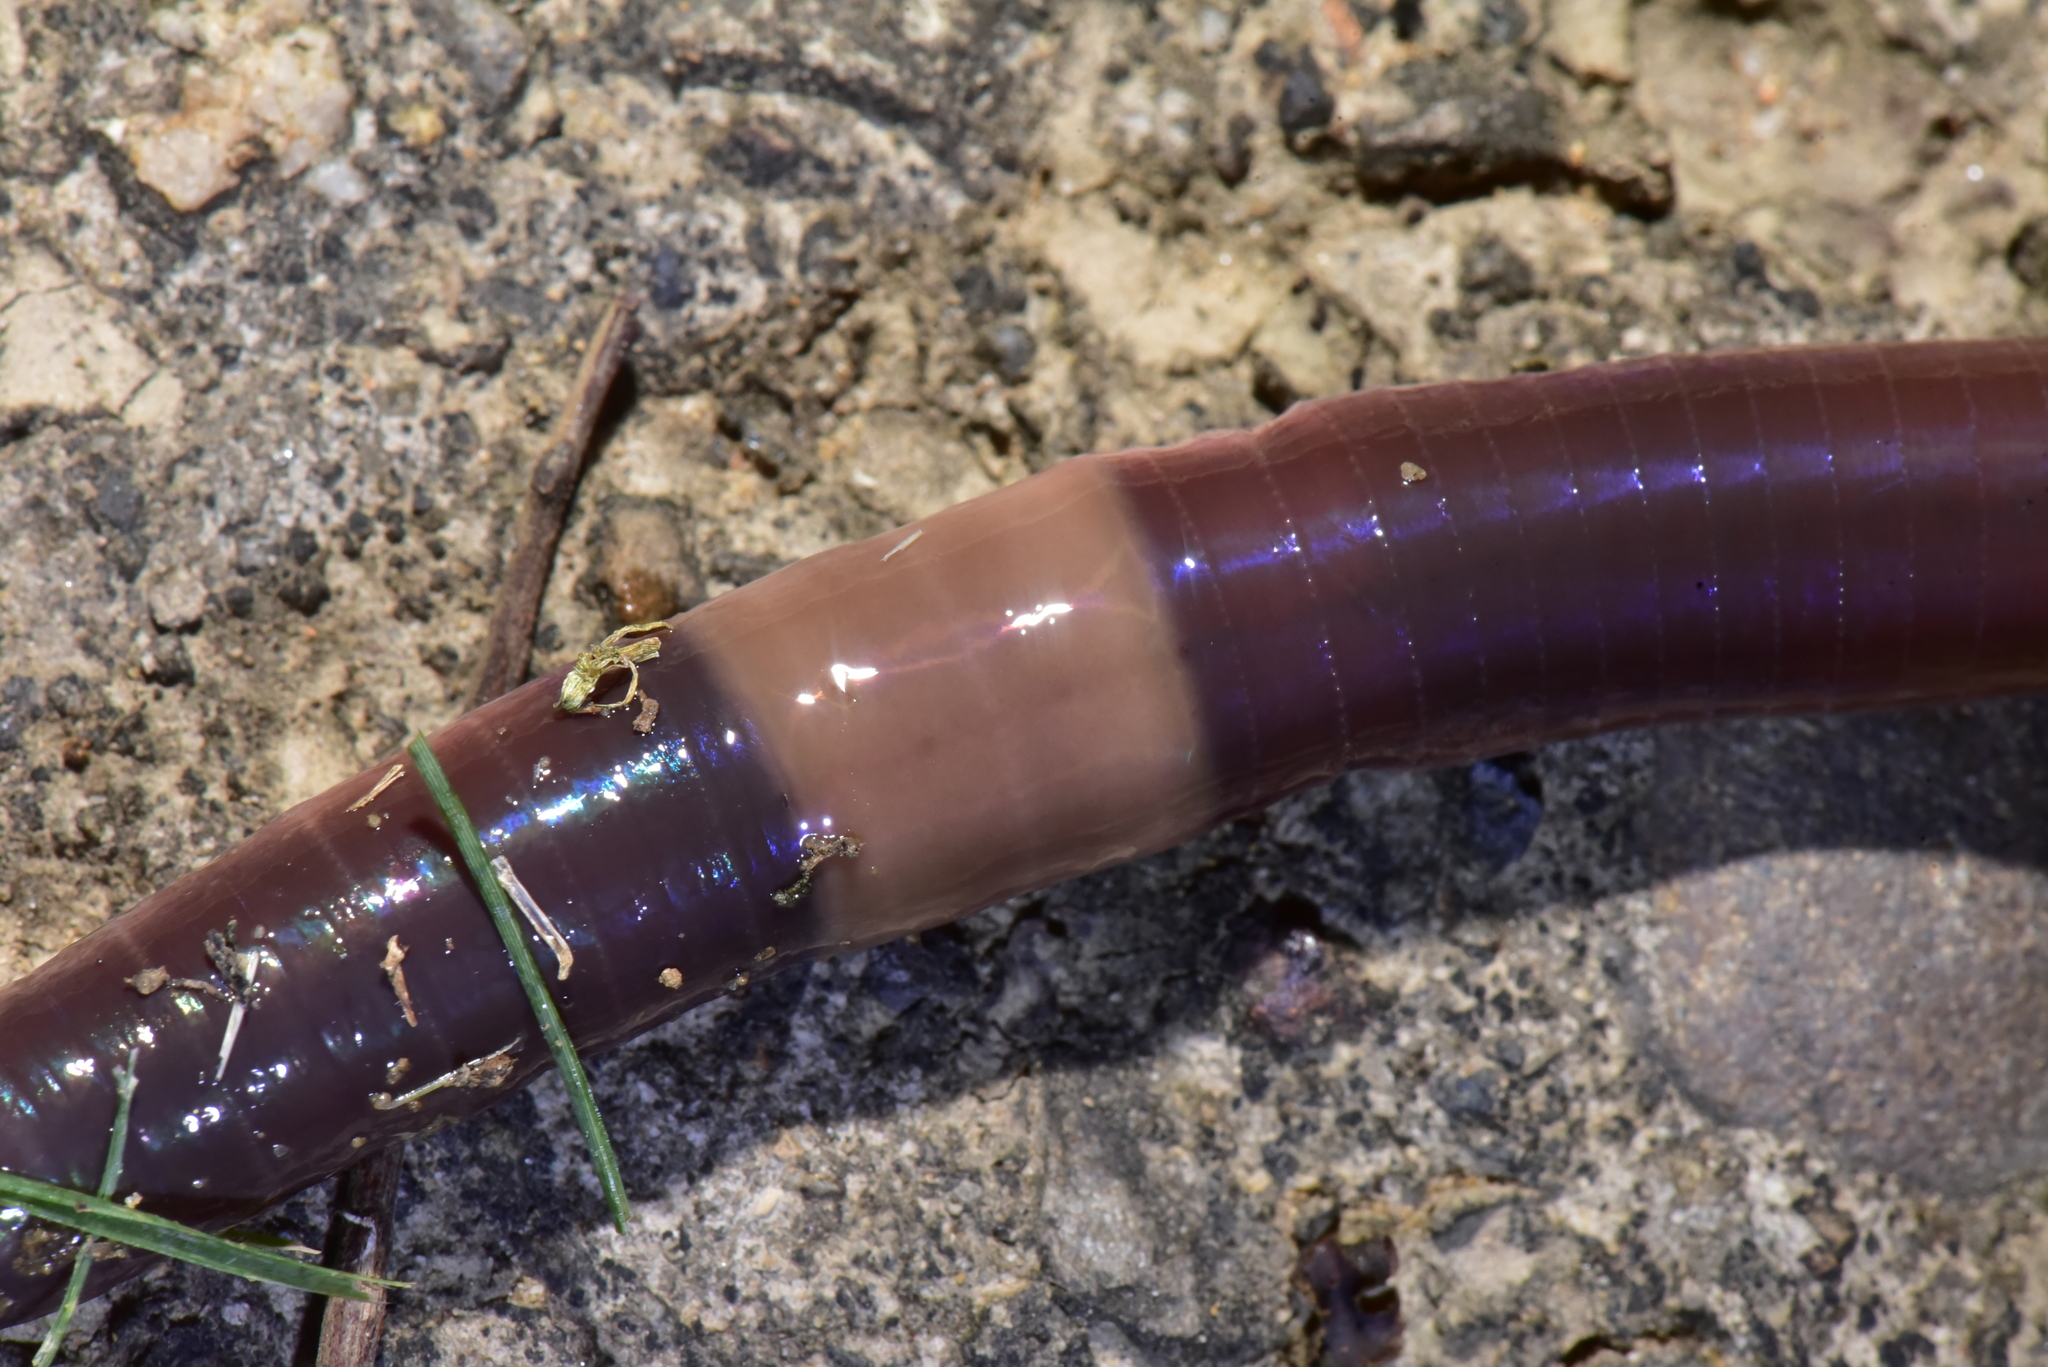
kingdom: Animalia
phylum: Annelida
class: Clitellata
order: Crassiclitellata
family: Megascolecidae
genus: Pheretima
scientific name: Pheretima formosae
